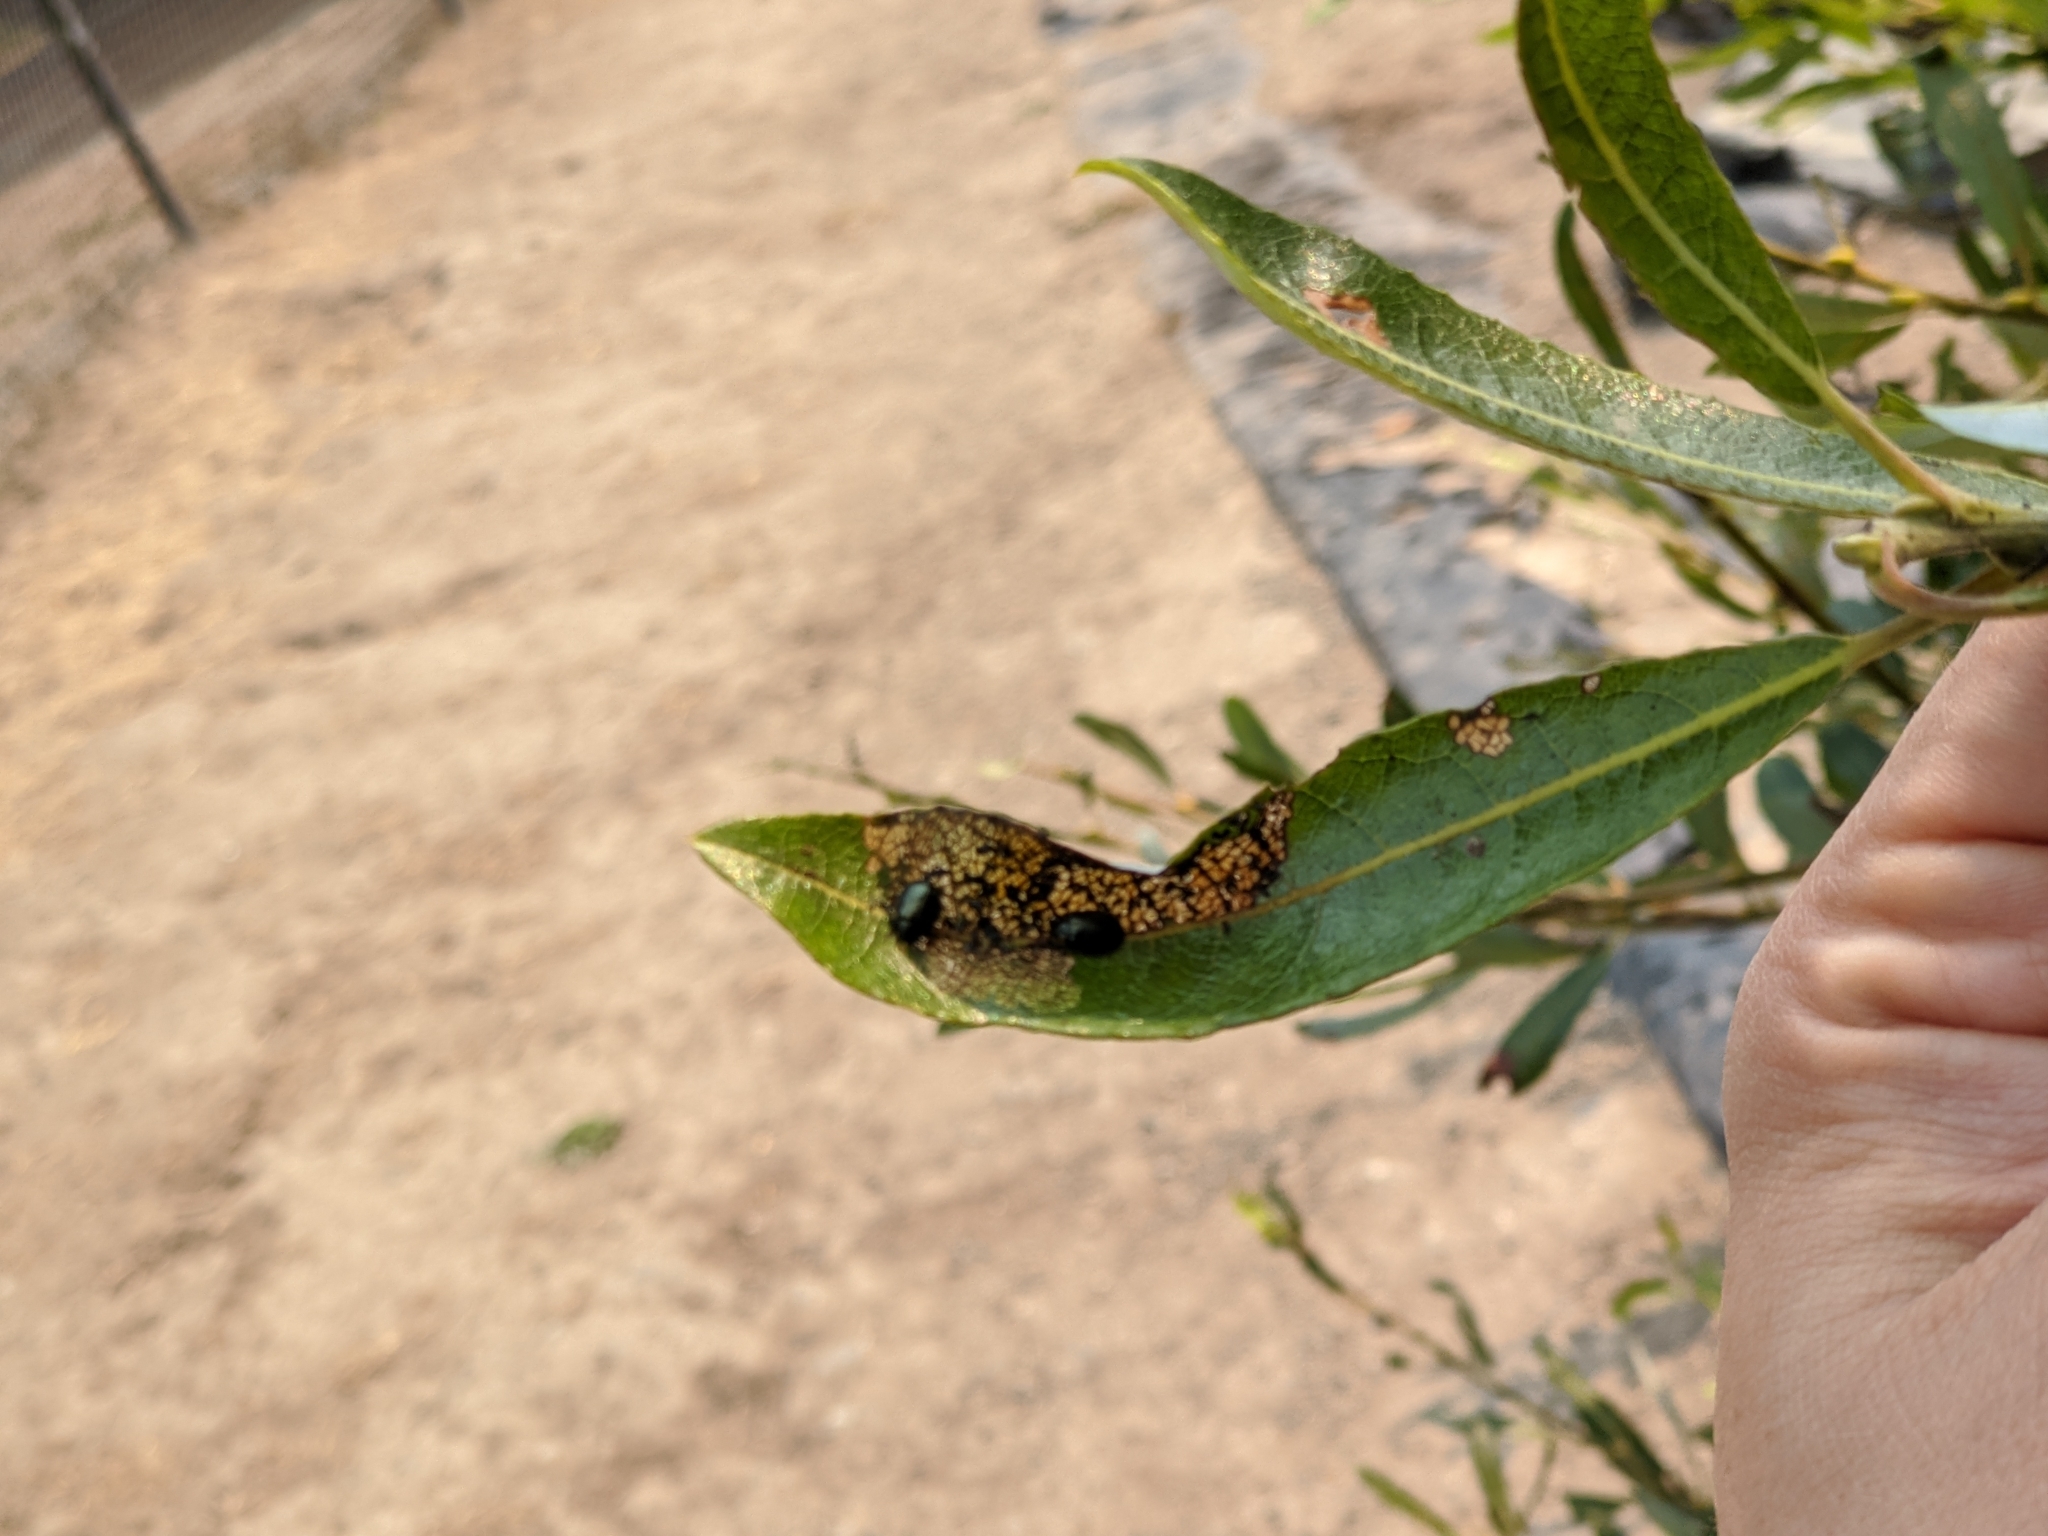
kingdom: Animalia
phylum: Arthropoda
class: Insecta
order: Coleoptera
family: Chrysomelidae
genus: Plagiodera
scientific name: Plagiodera californica
